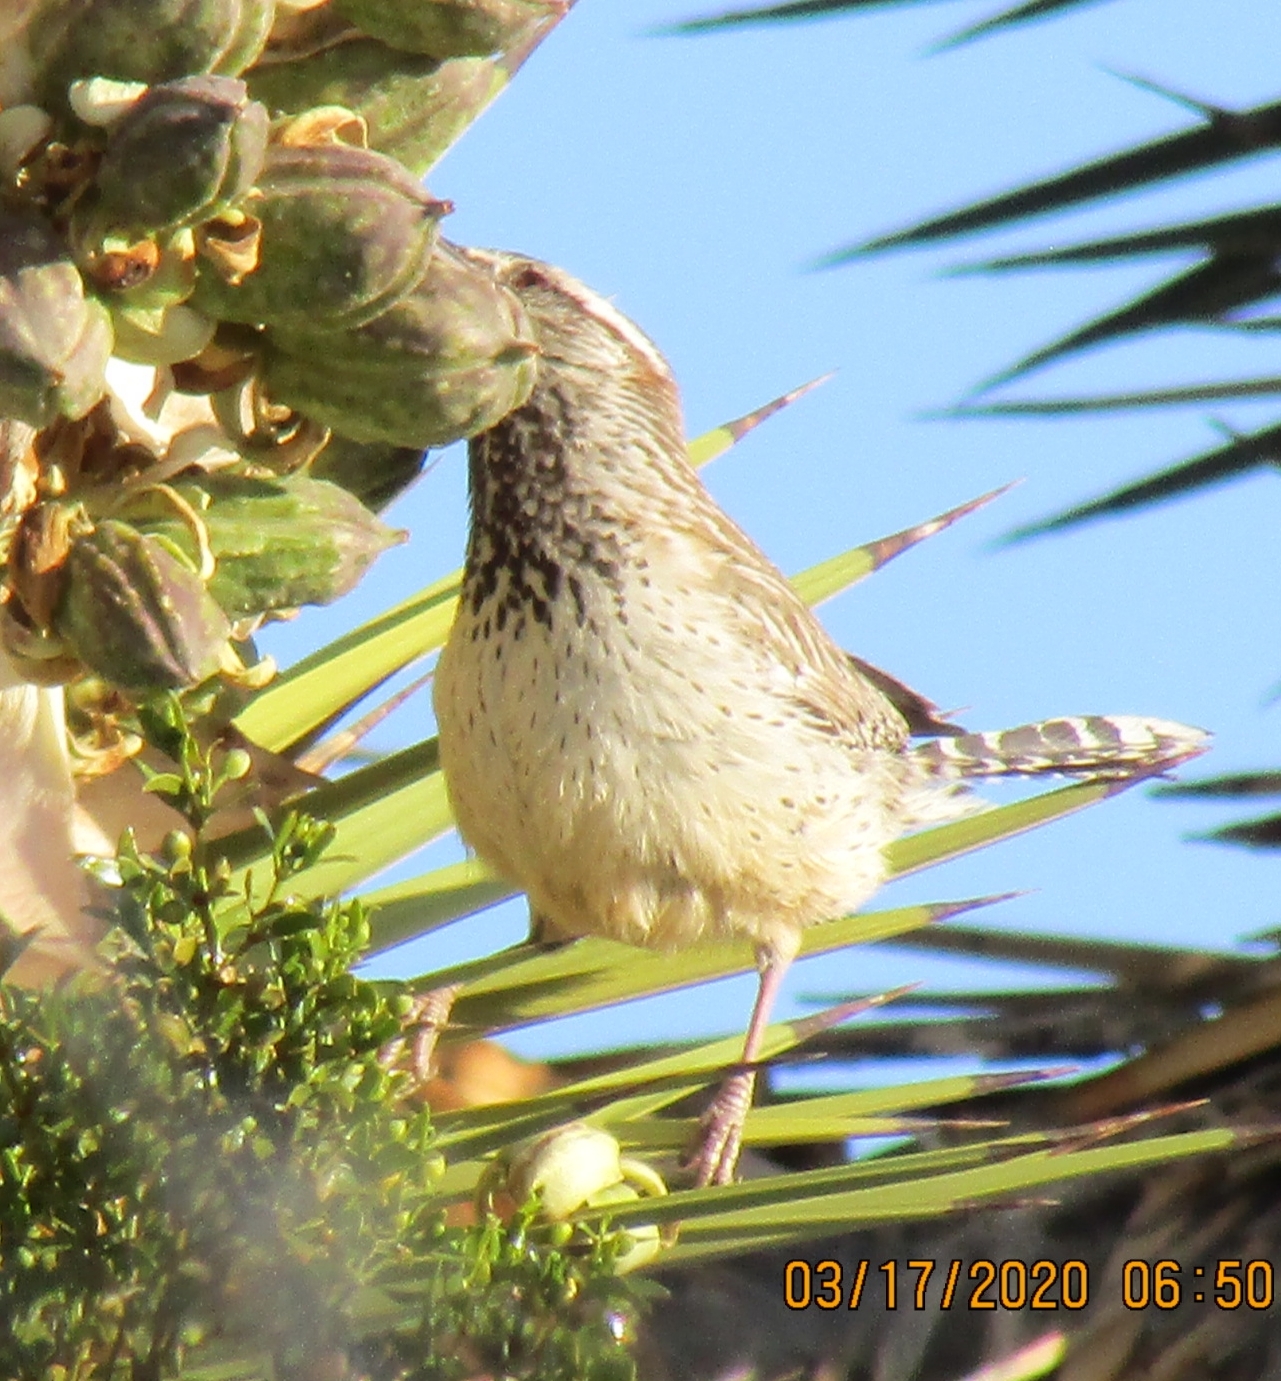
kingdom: Animalia
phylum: Chordata
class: Aves
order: Passeriformes
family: Troglodytidae
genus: Campylorhynchus
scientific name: Campylorhynchus brunneicapillus
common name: Cactus wren
